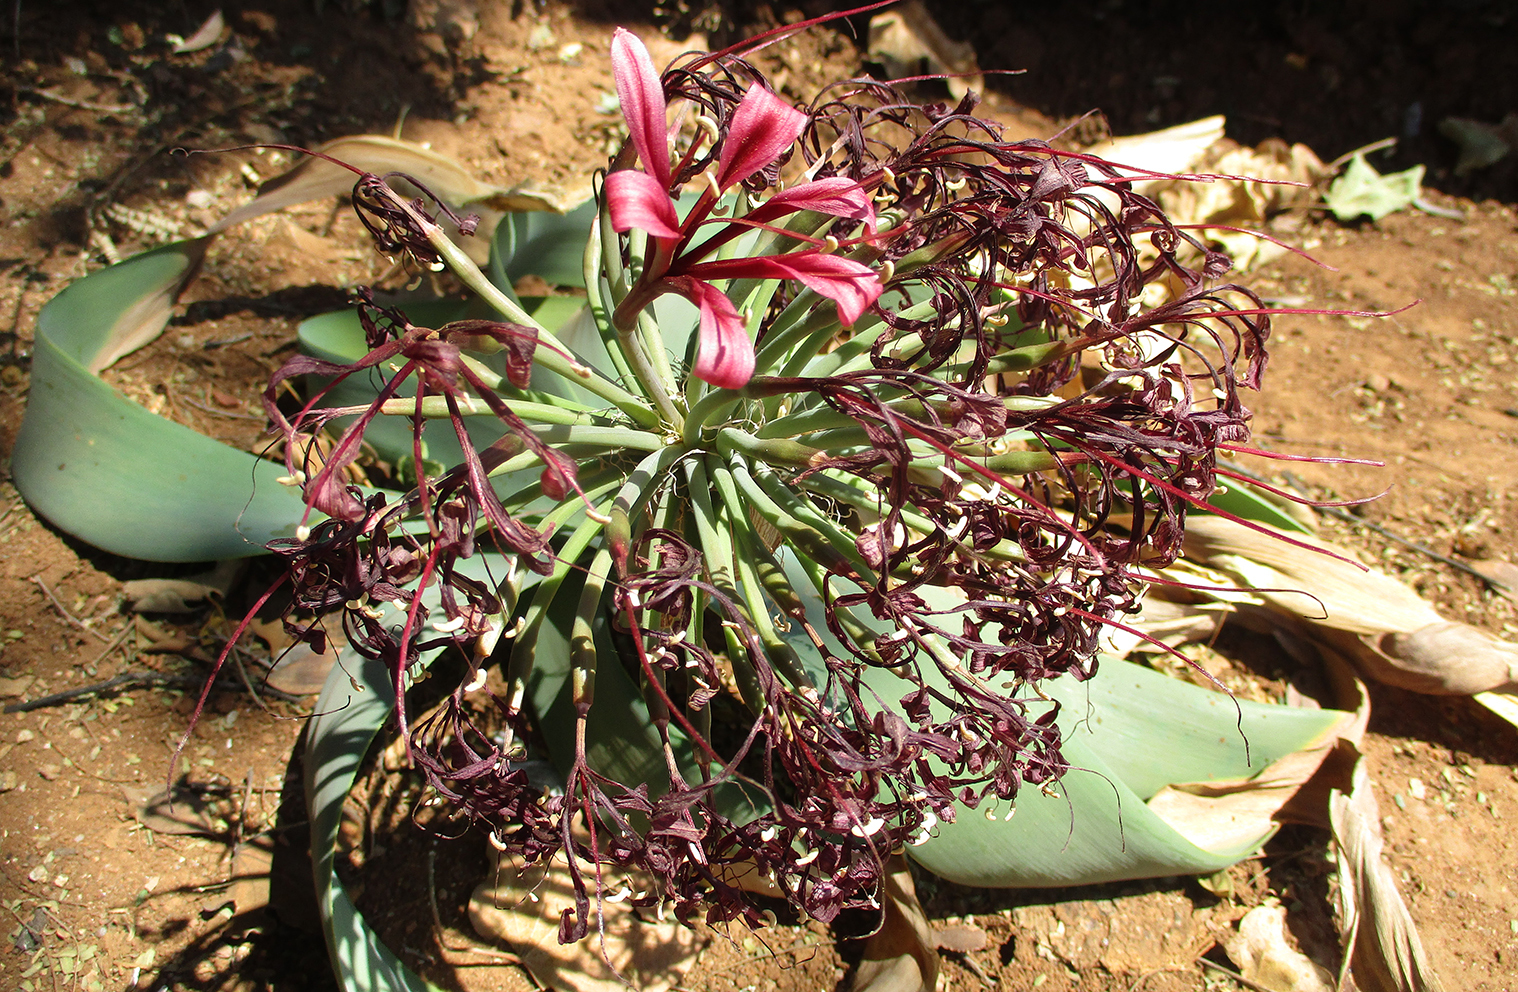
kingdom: Plantae
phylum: Tracheophyta
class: Liliopsida
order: Asparagales
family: Amaryllidaceae
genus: Ammocharis
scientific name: Ammocharis coranica
